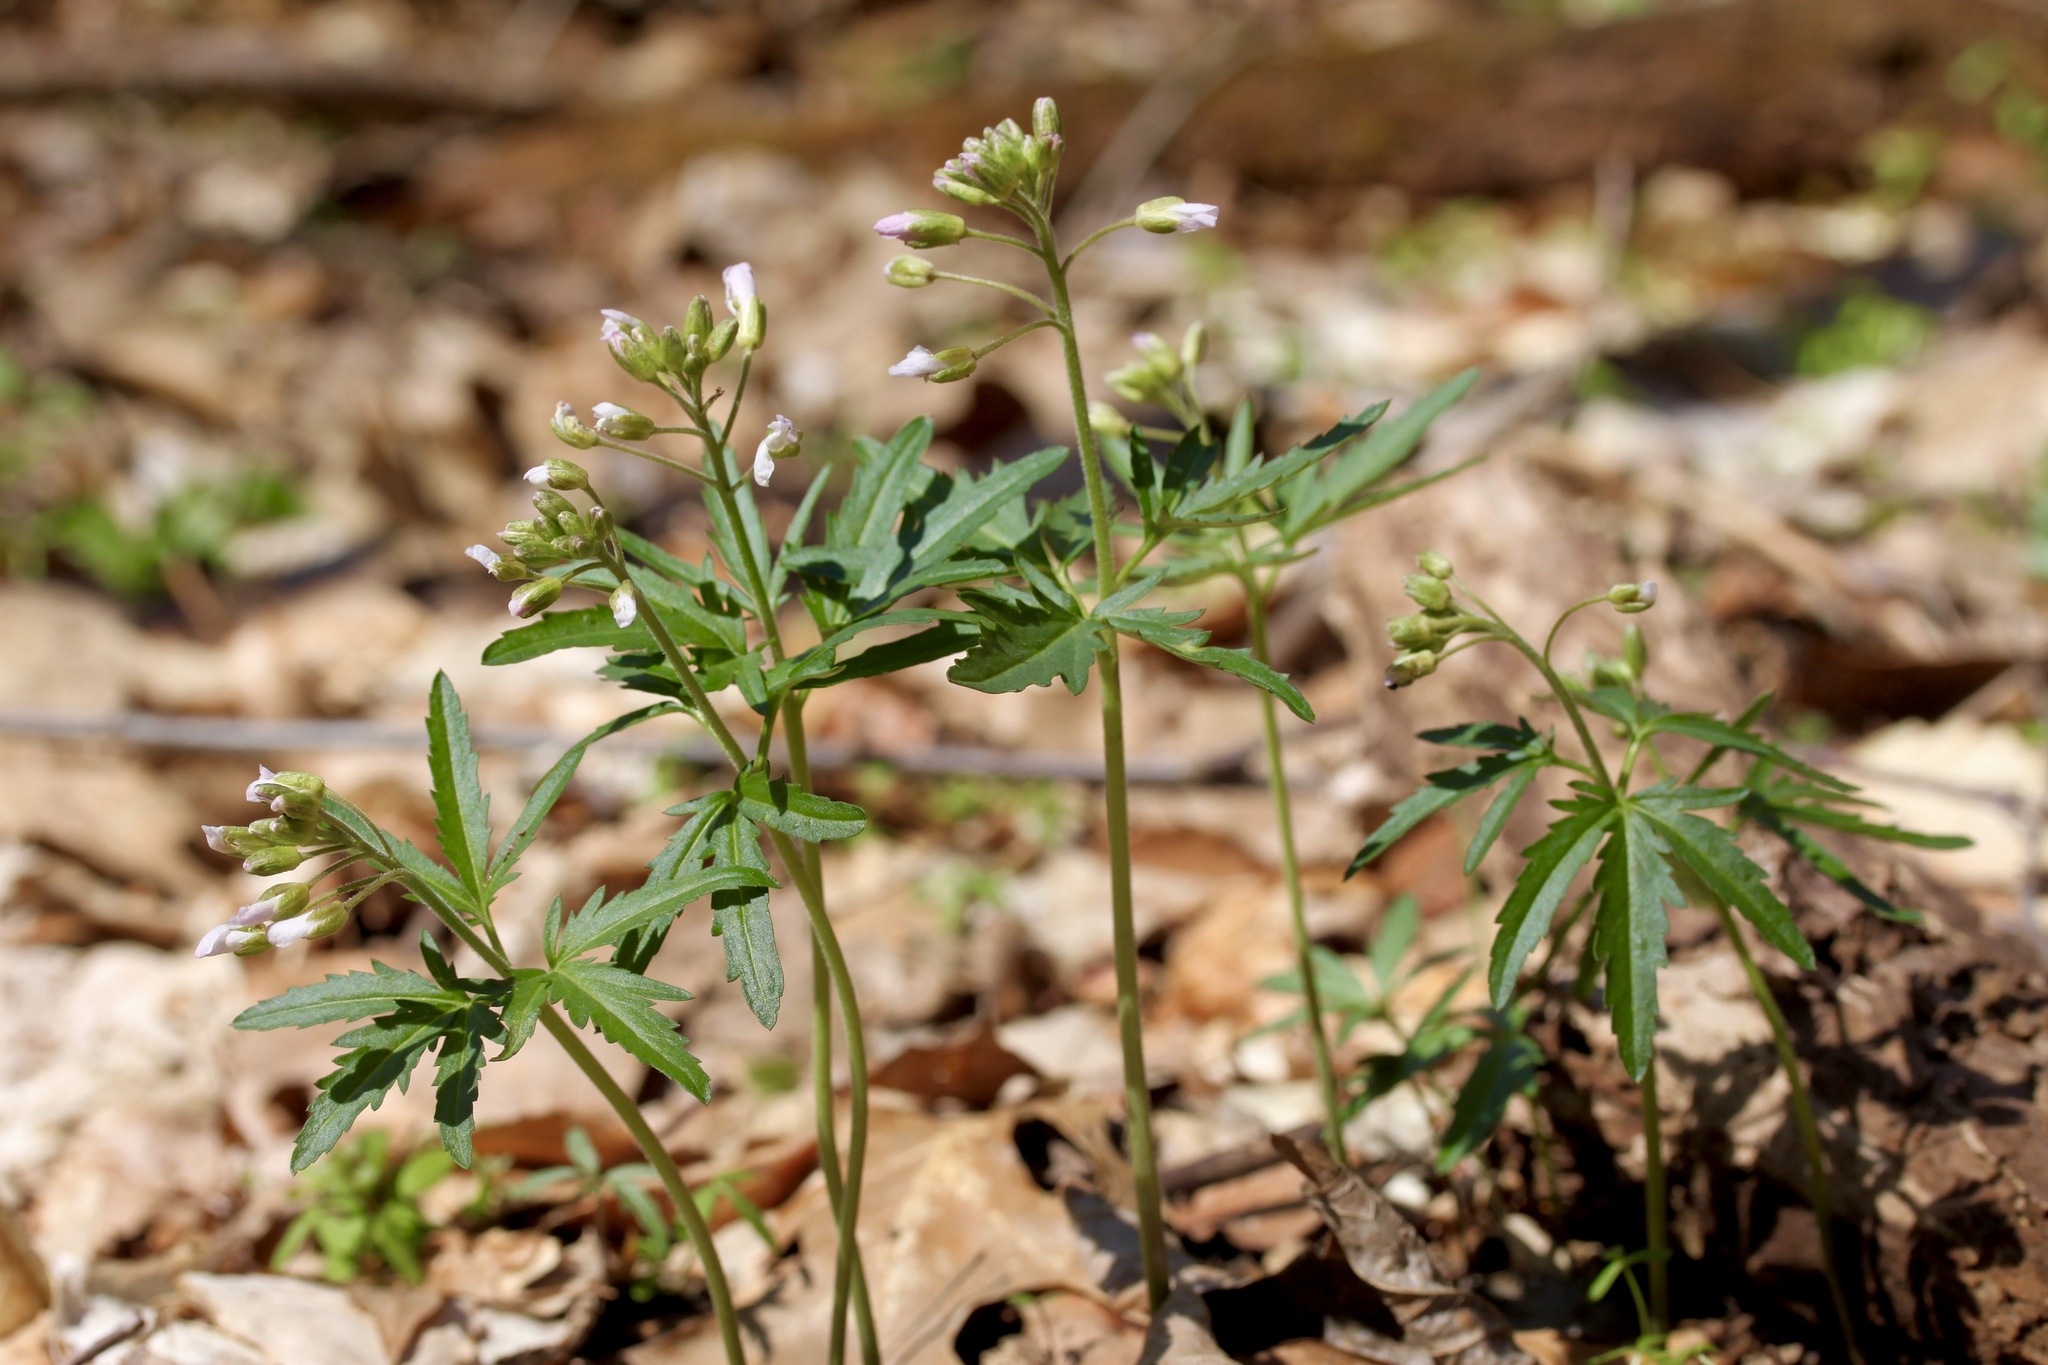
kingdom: Plantae
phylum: Tracheophyta
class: Magnoliopsida
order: Brassicales
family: Brassicaceae
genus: Cardamine
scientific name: Cardamine concatenata
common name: Cut-leaf toothcup
